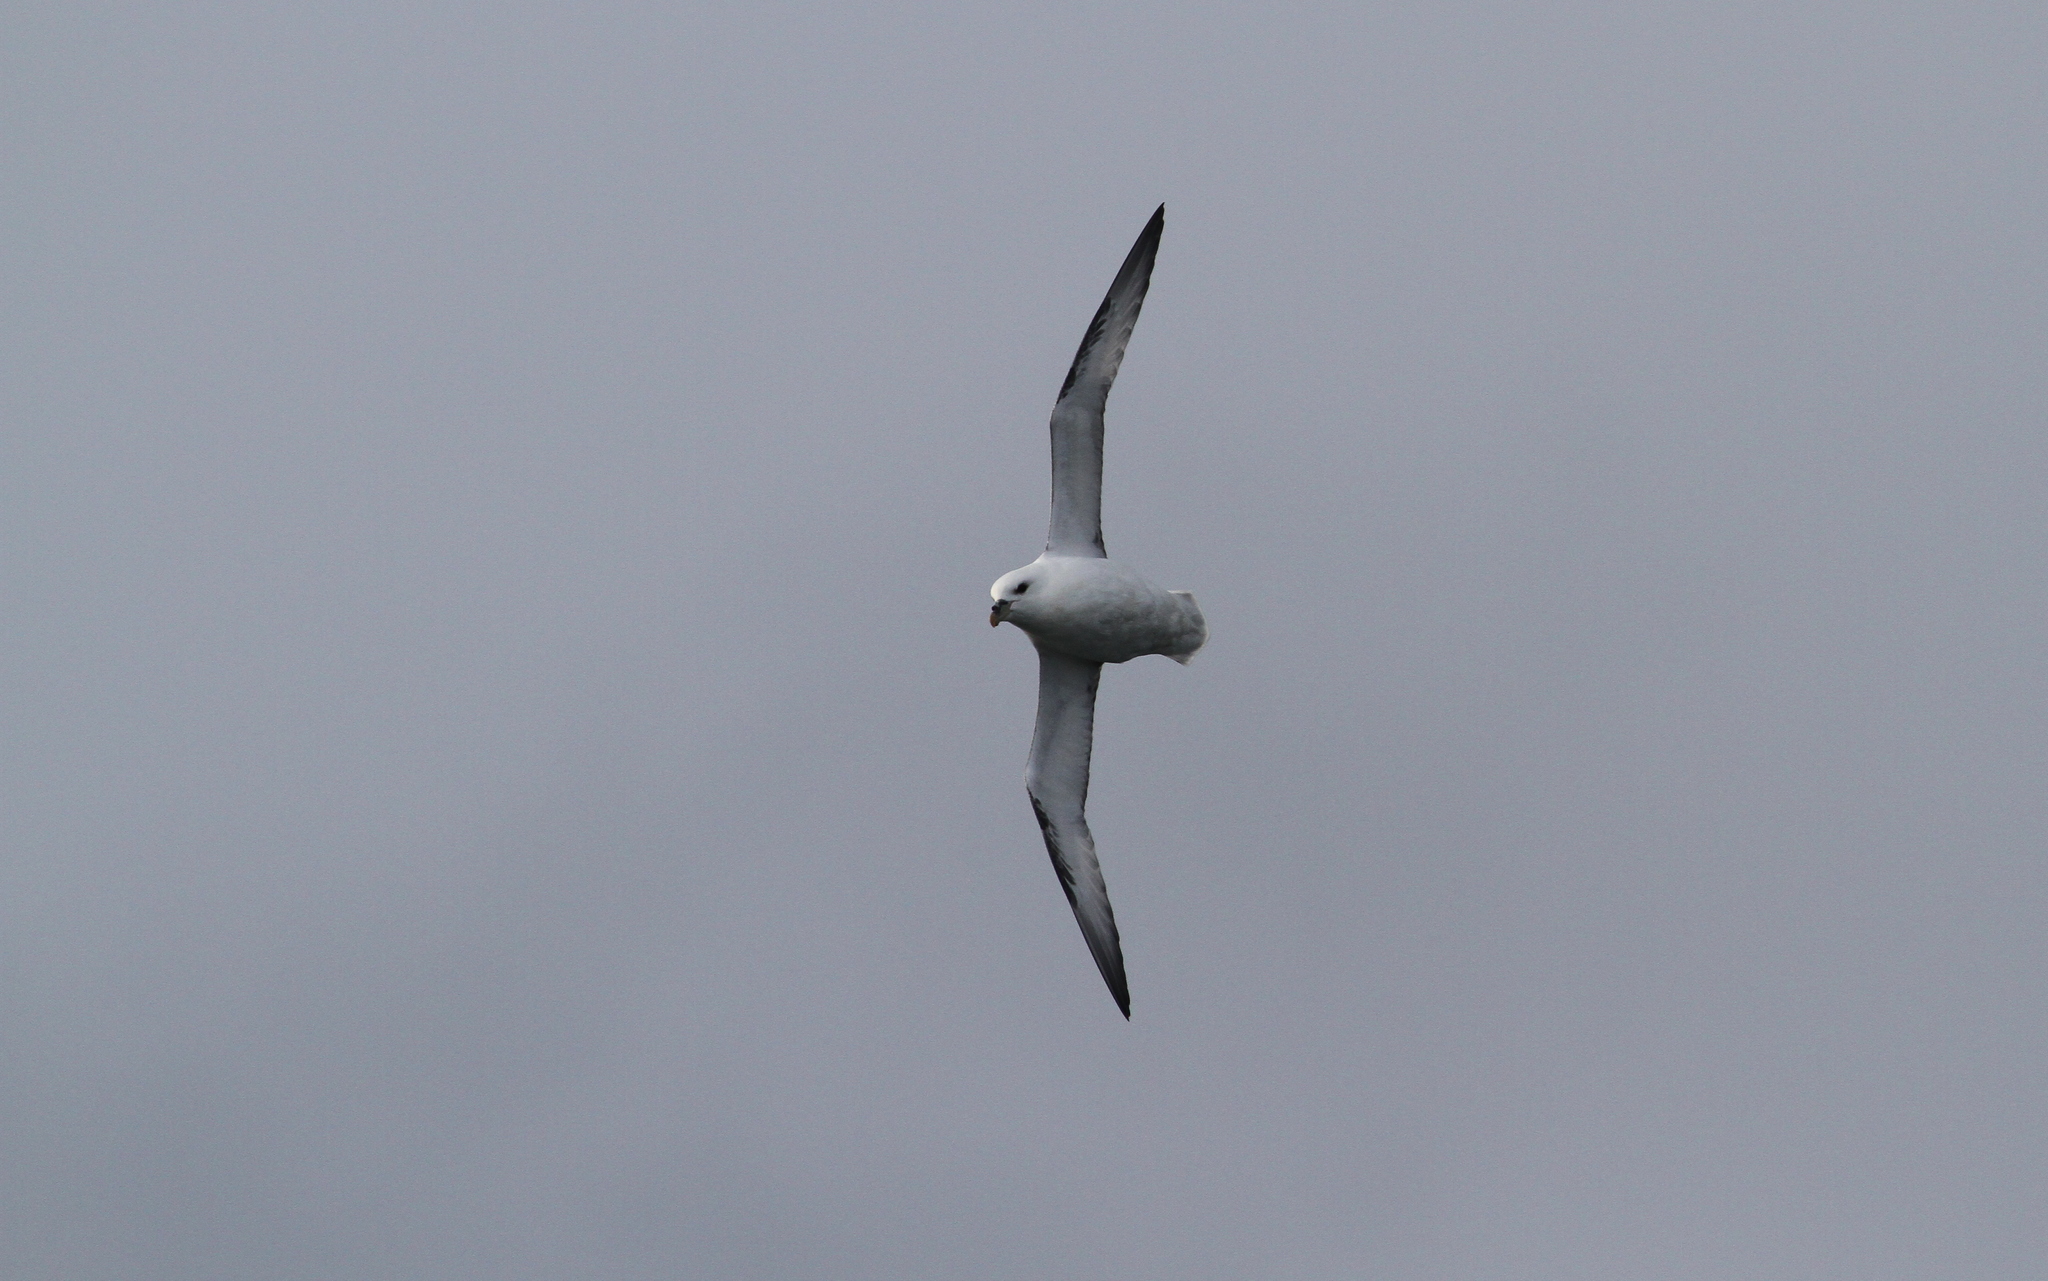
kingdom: Animalia
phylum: Chordata
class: Aves
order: Procellariiformes
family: Procellariidae
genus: Fulmarus
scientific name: Fulmarus glacialis
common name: Northern fulmar
